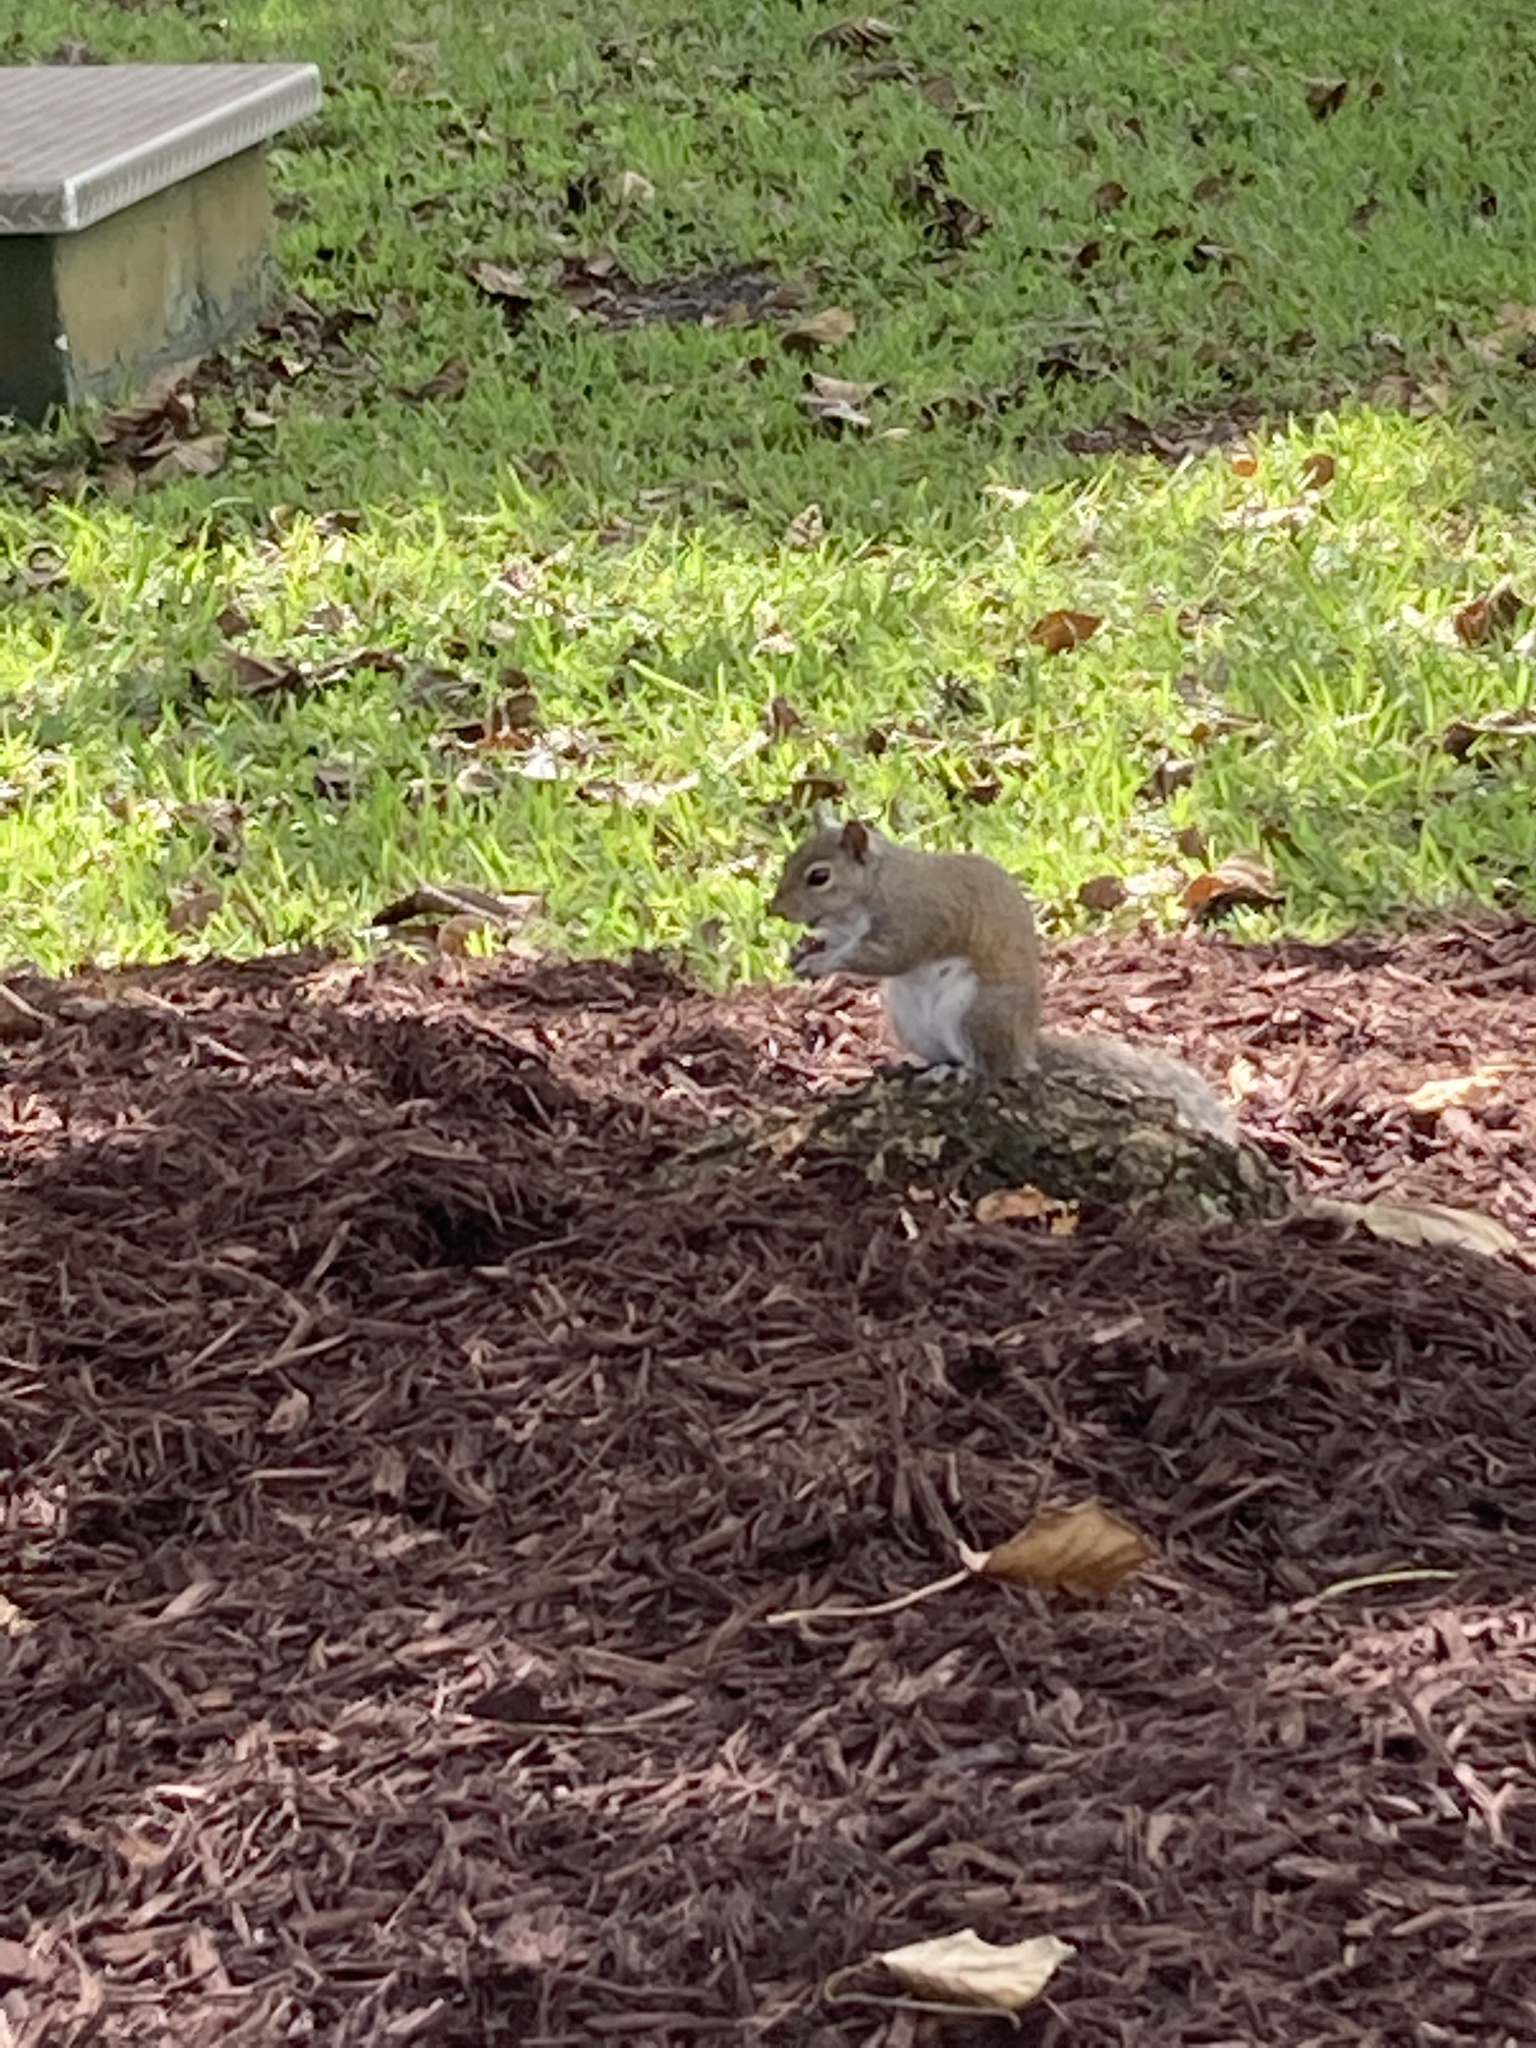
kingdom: Animalia
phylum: Chordata
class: Mammalia
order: Rodentia
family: Sciuridae
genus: Sciurus
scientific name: Sciurus carolinensis
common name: Eastern gray squirrel
